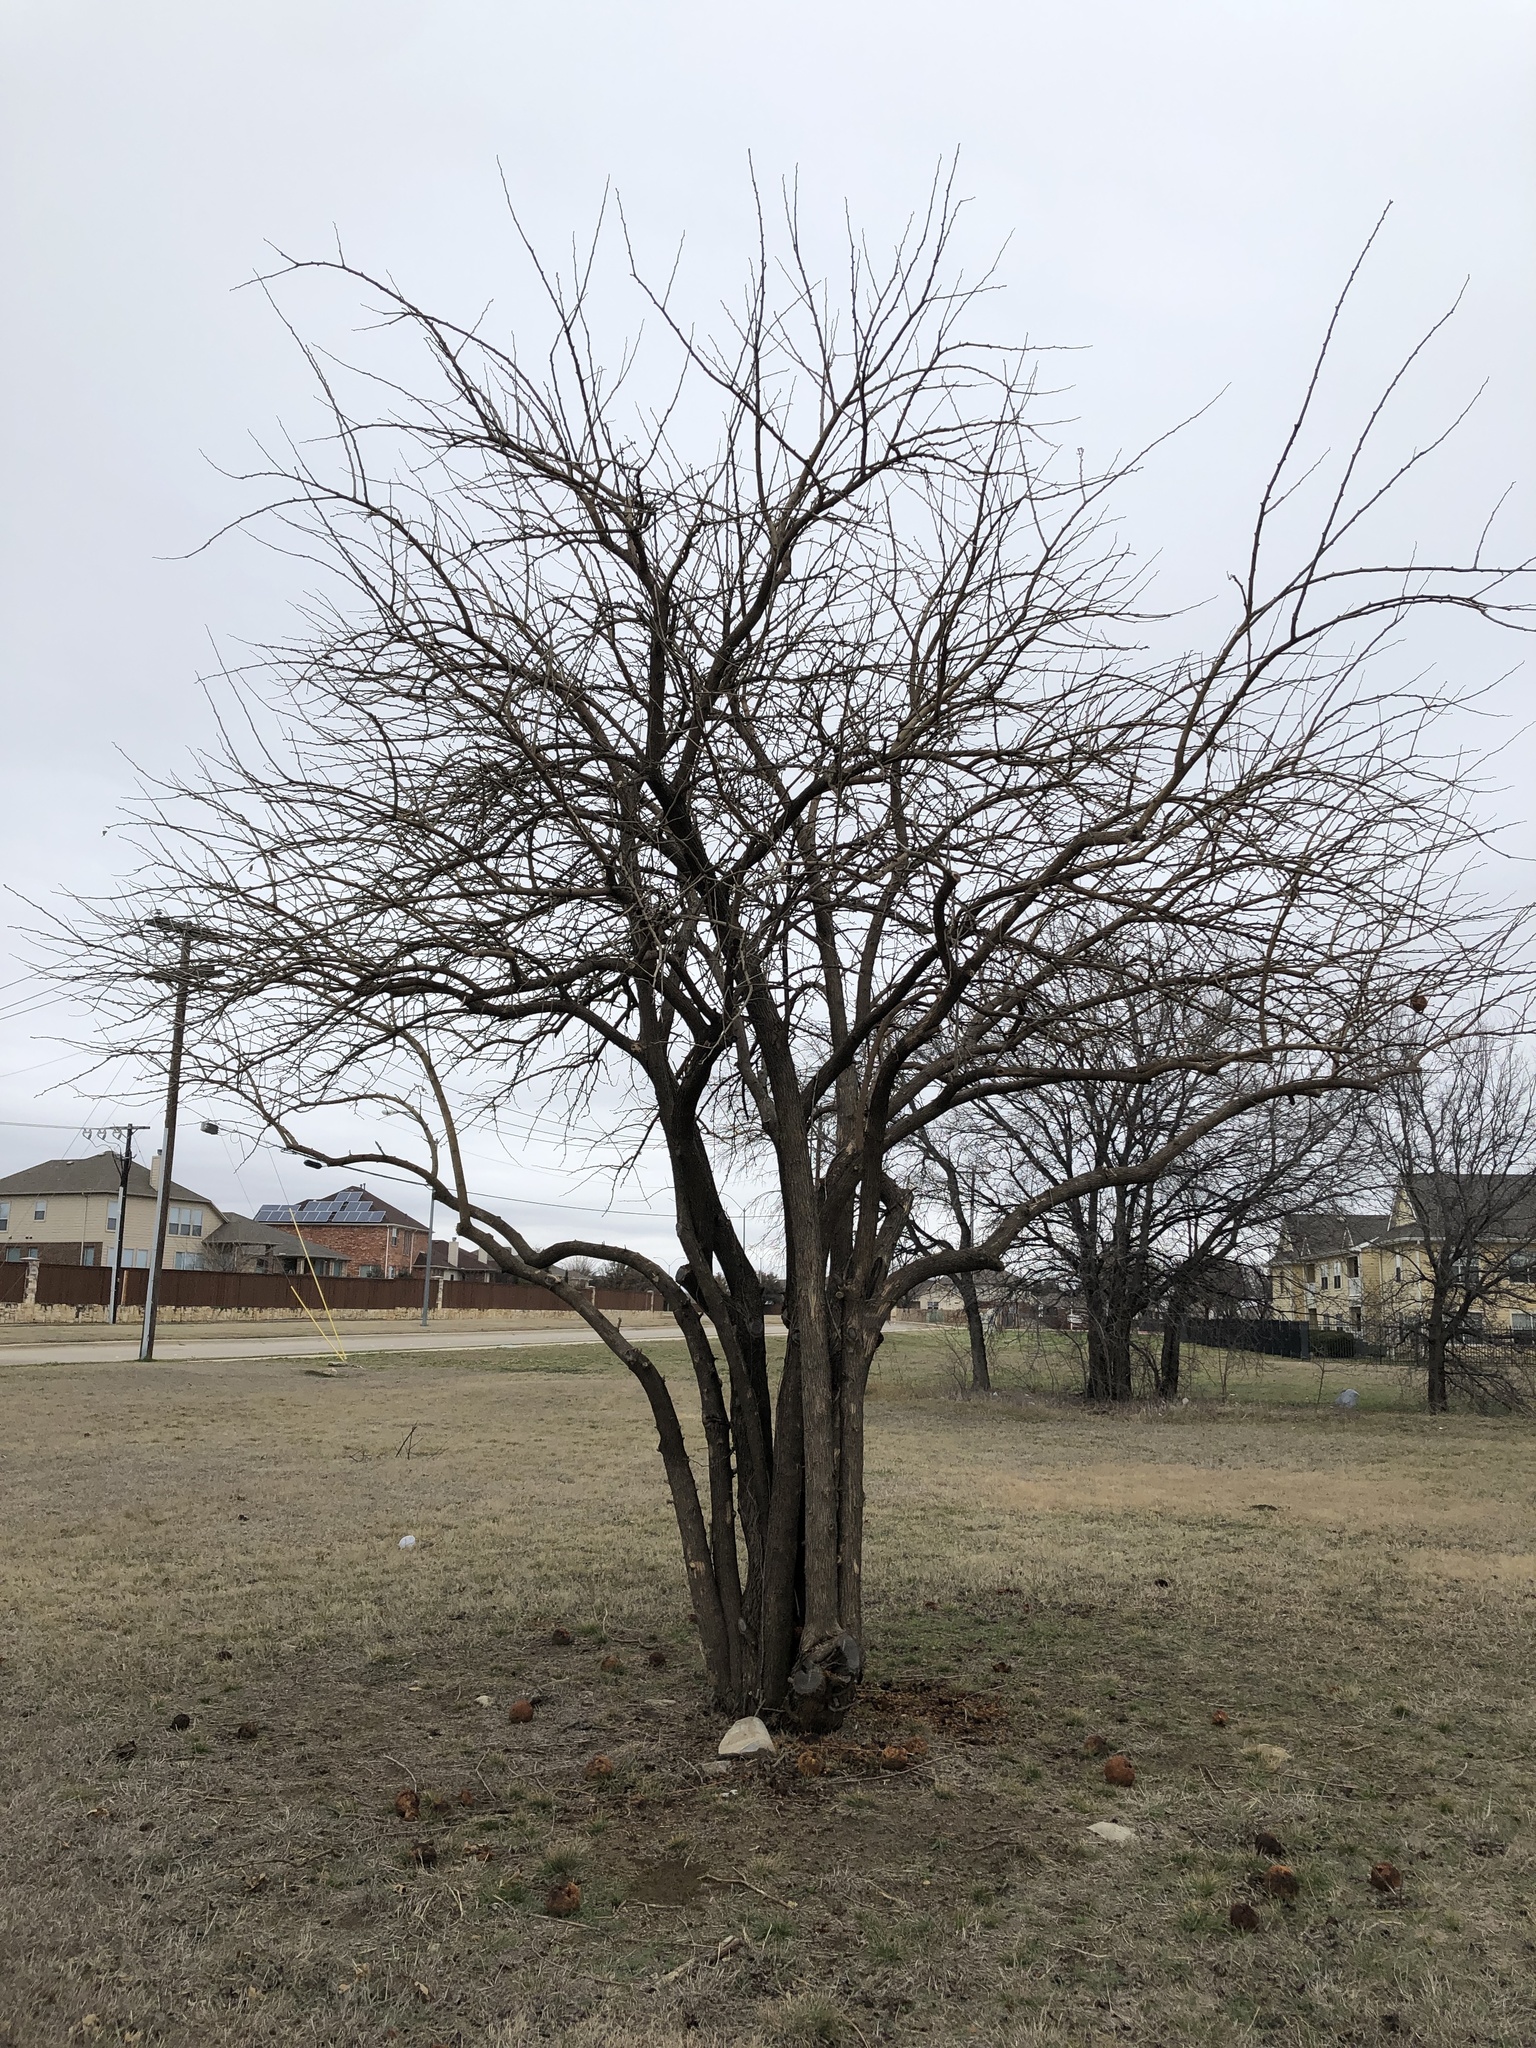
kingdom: Plantae
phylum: Tracheophyta
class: Magnoliopsida
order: Rosales
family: Moraceae
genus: Maclura
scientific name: Maclura pomifera
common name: Osage-orange
